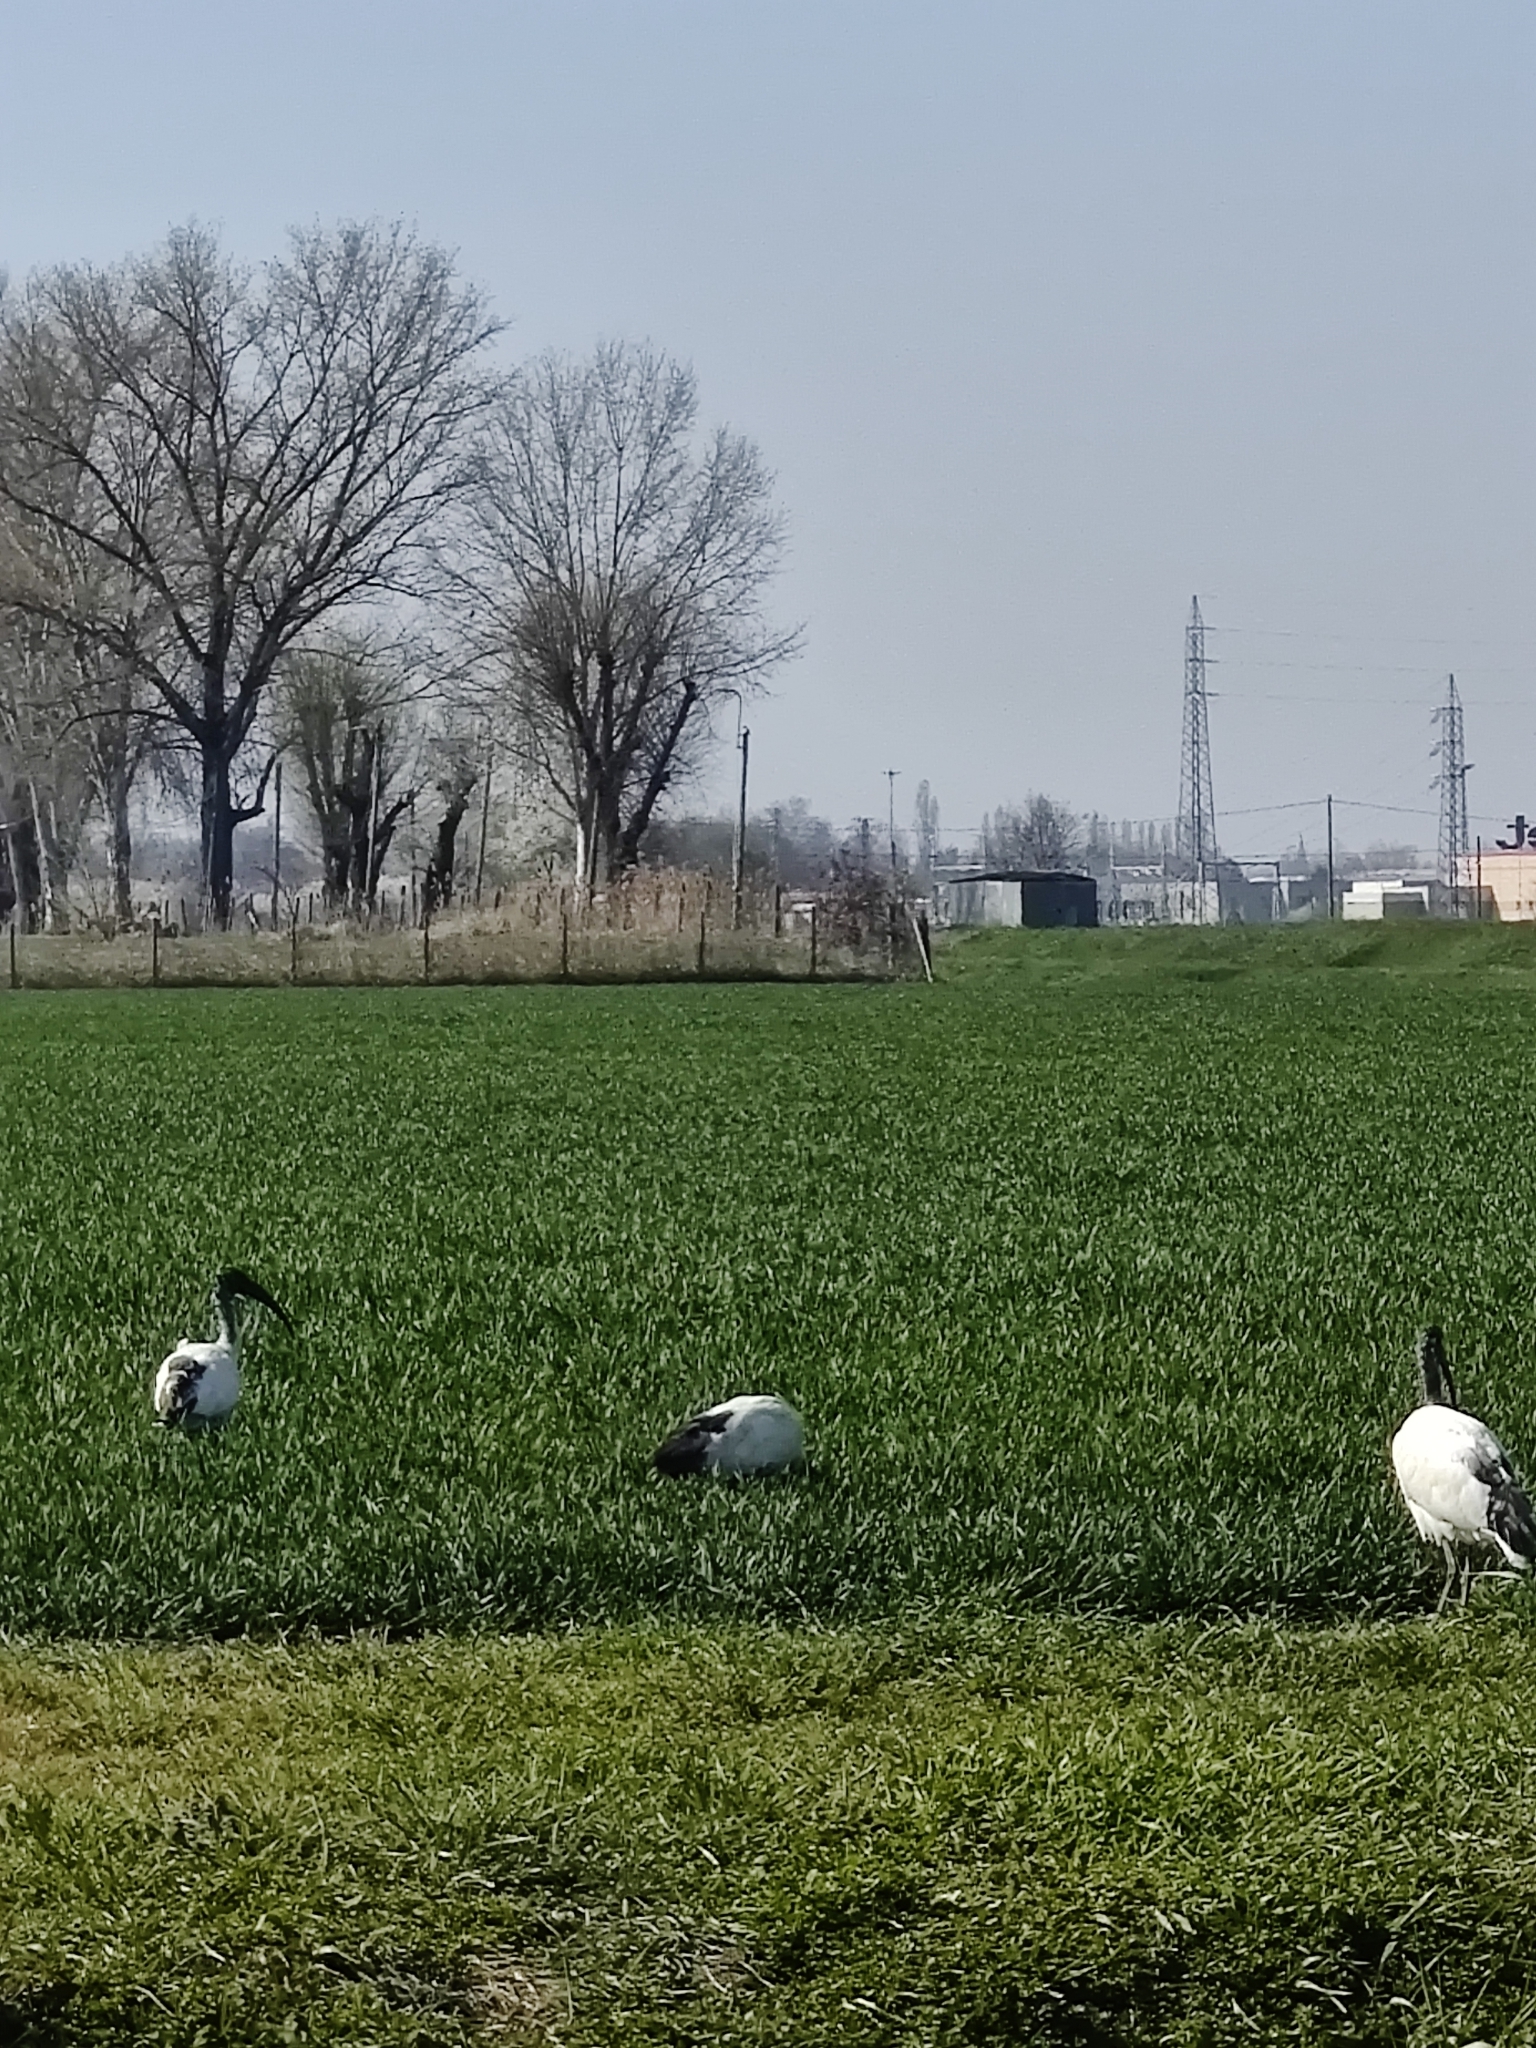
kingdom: Animalia
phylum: Chordata
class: Aves
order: Pelecaniformes
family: Threskiornithidae
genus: Threskiornis
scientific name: Threskiornis aethiopicus
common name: Sacred ibis
